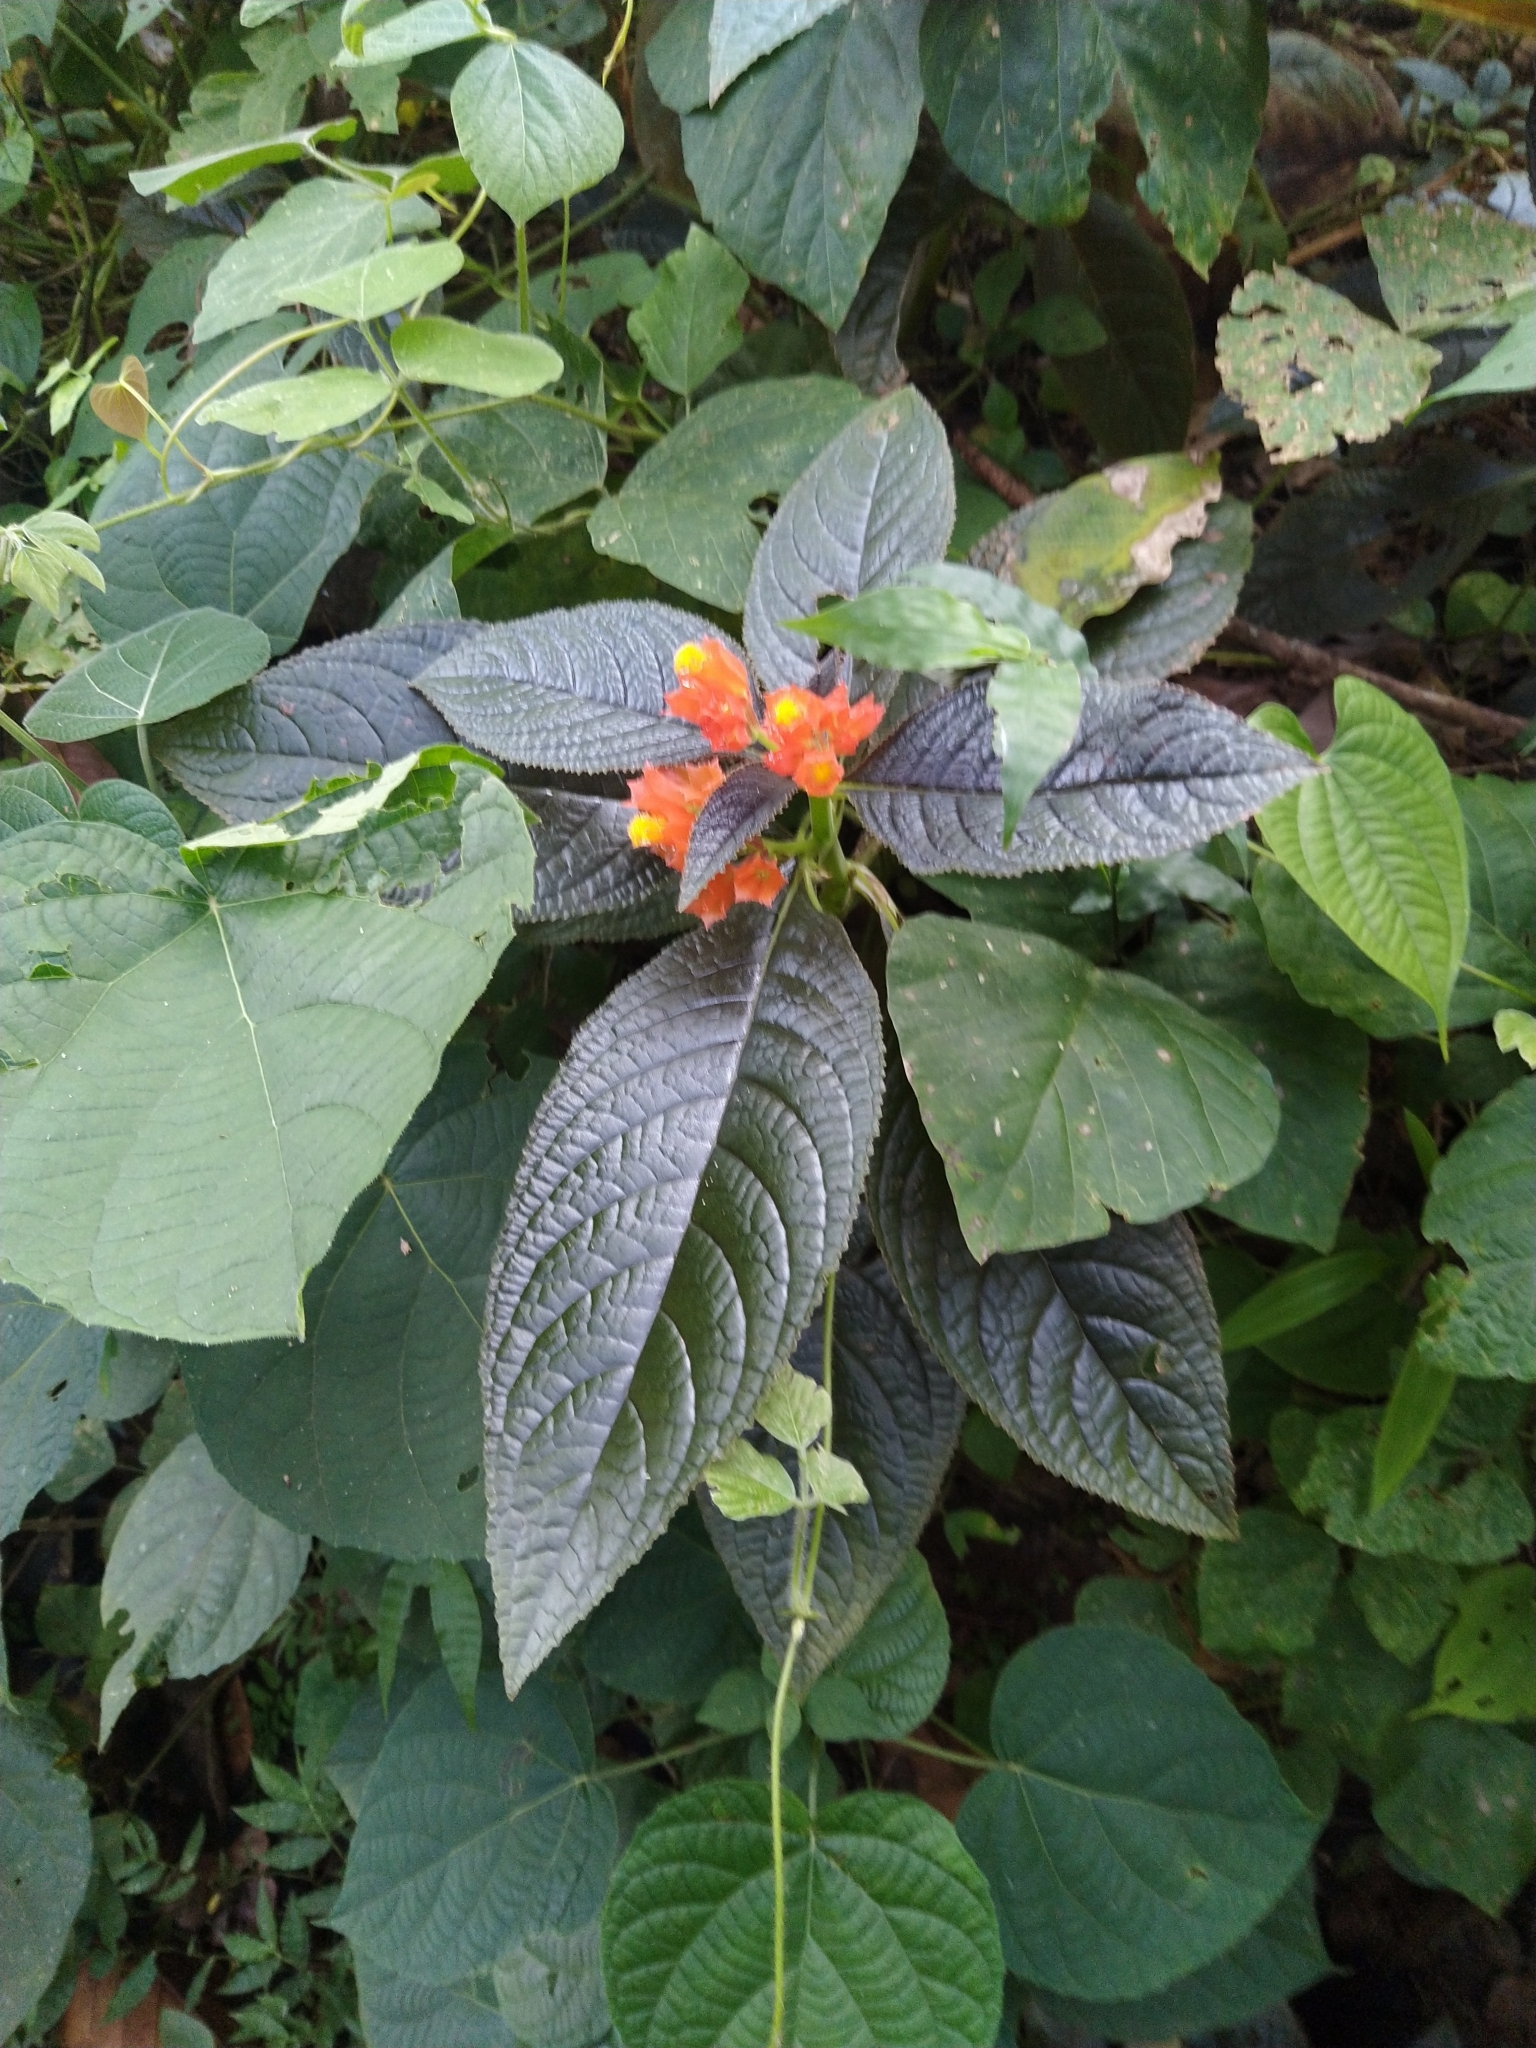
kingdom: Plantae
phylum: Tracheophyta
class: Magnoliopsida
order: Lamiales
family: Gesneriaceae
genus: Chrysothemis
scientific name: Chrysothemis pulchella
